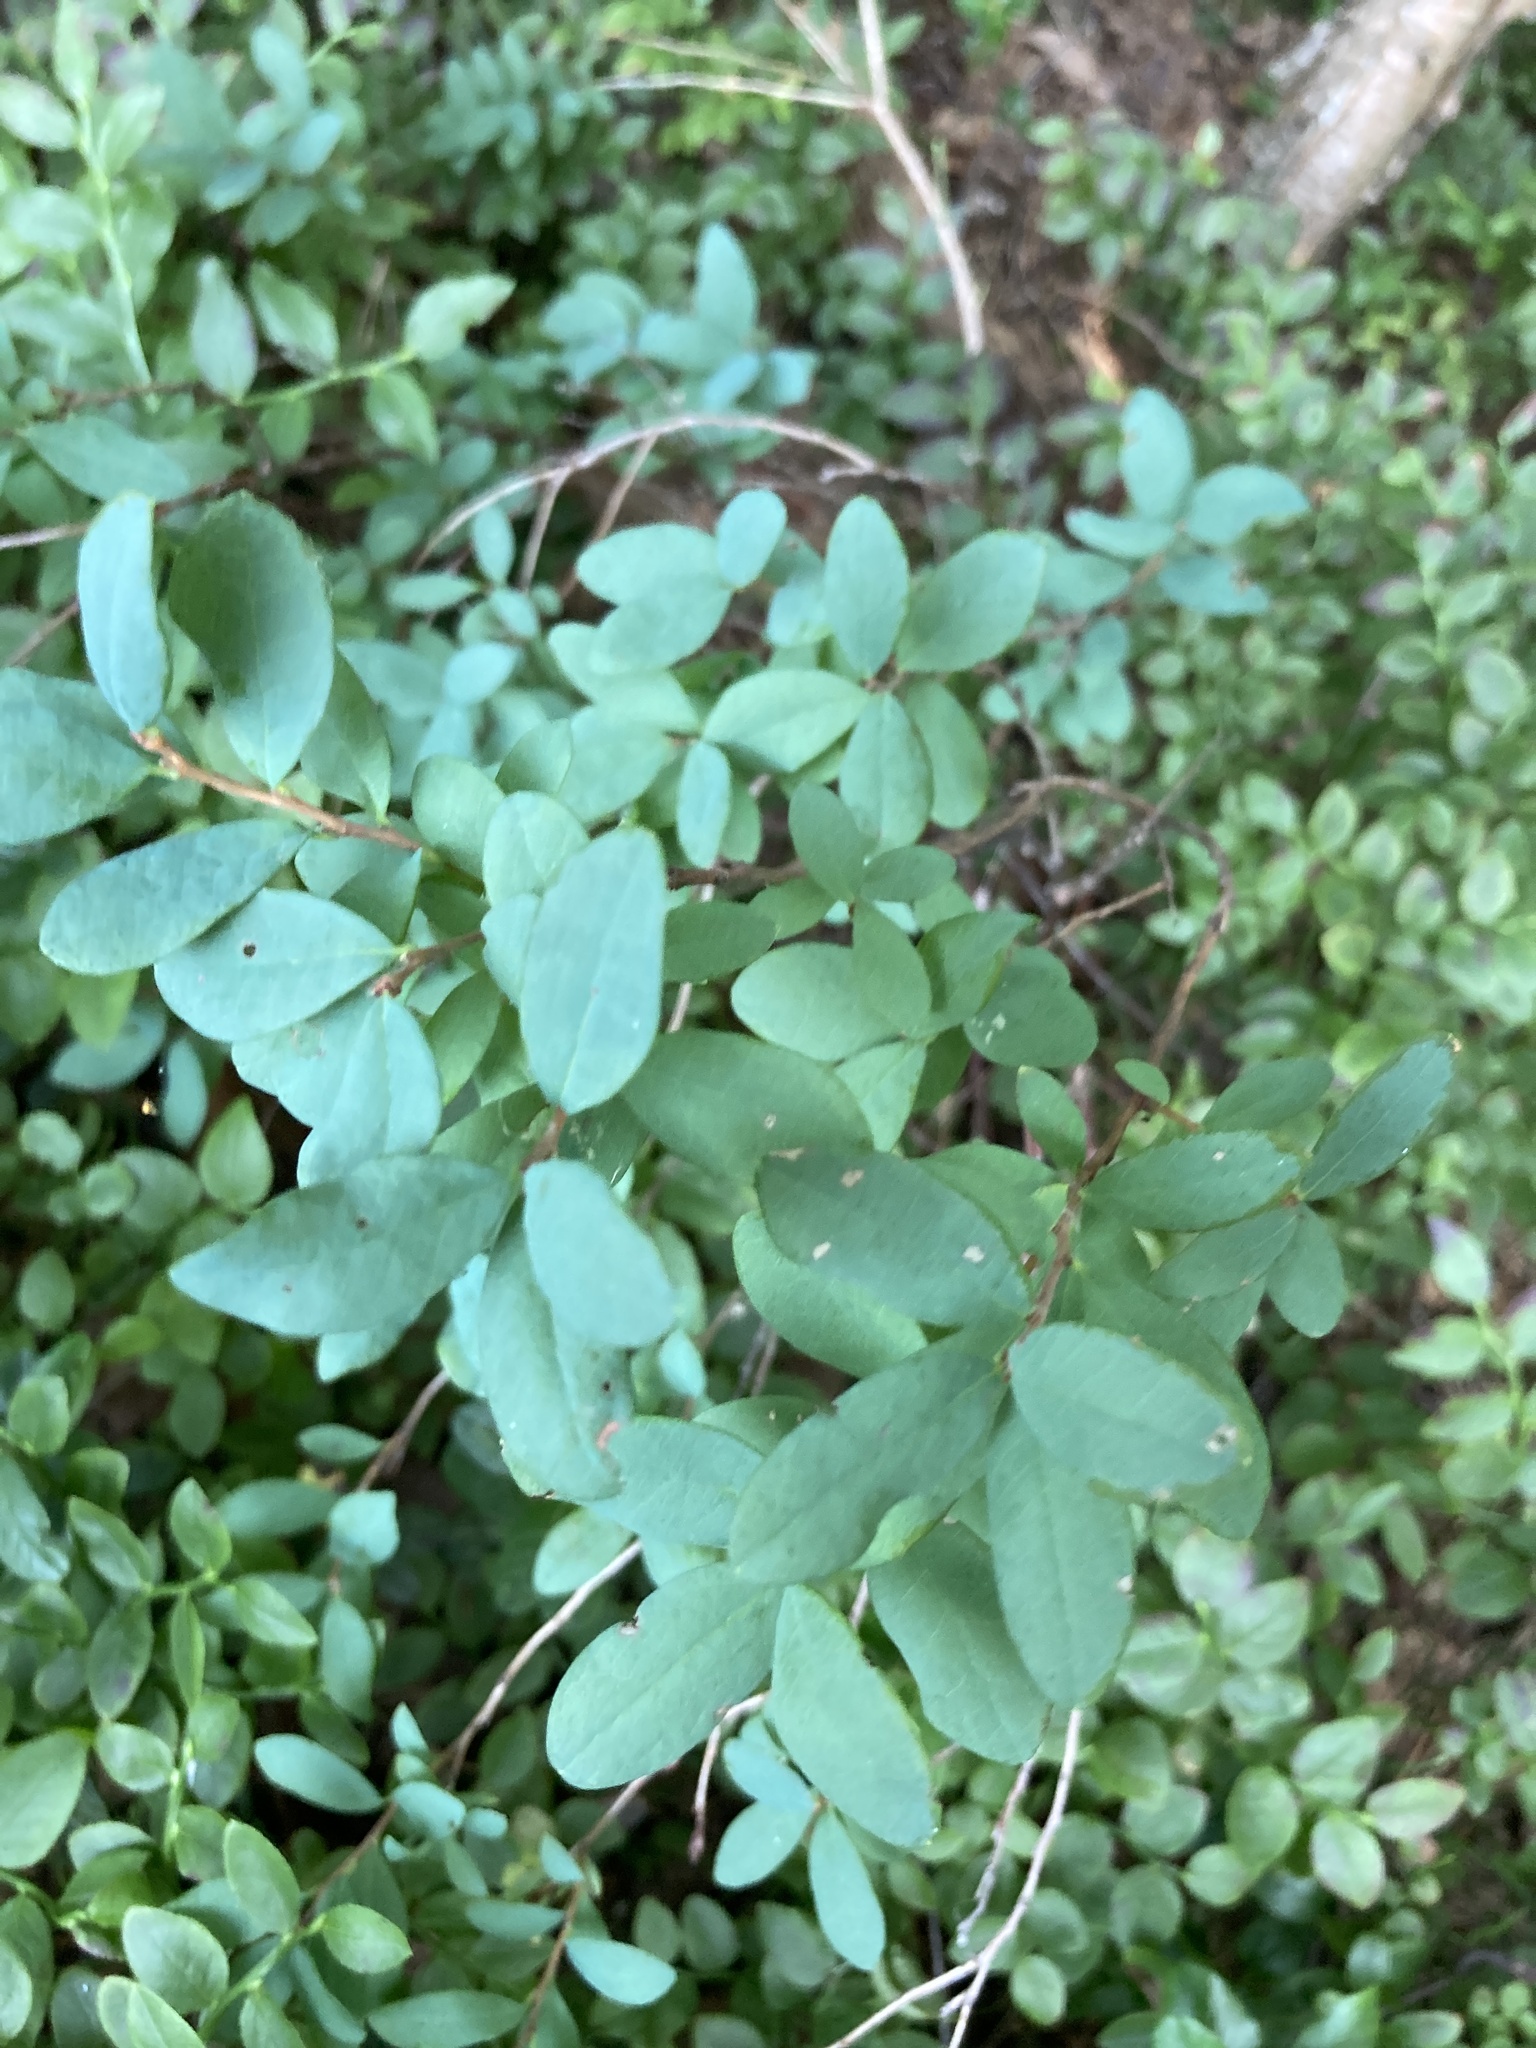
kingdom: Plantae
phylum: Tracheophyta
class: Magnoliopsida
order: Ericales
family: Ericaceae
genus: Vaccinium
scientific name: Vaccinium uliginosum
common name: Bog bilberry
